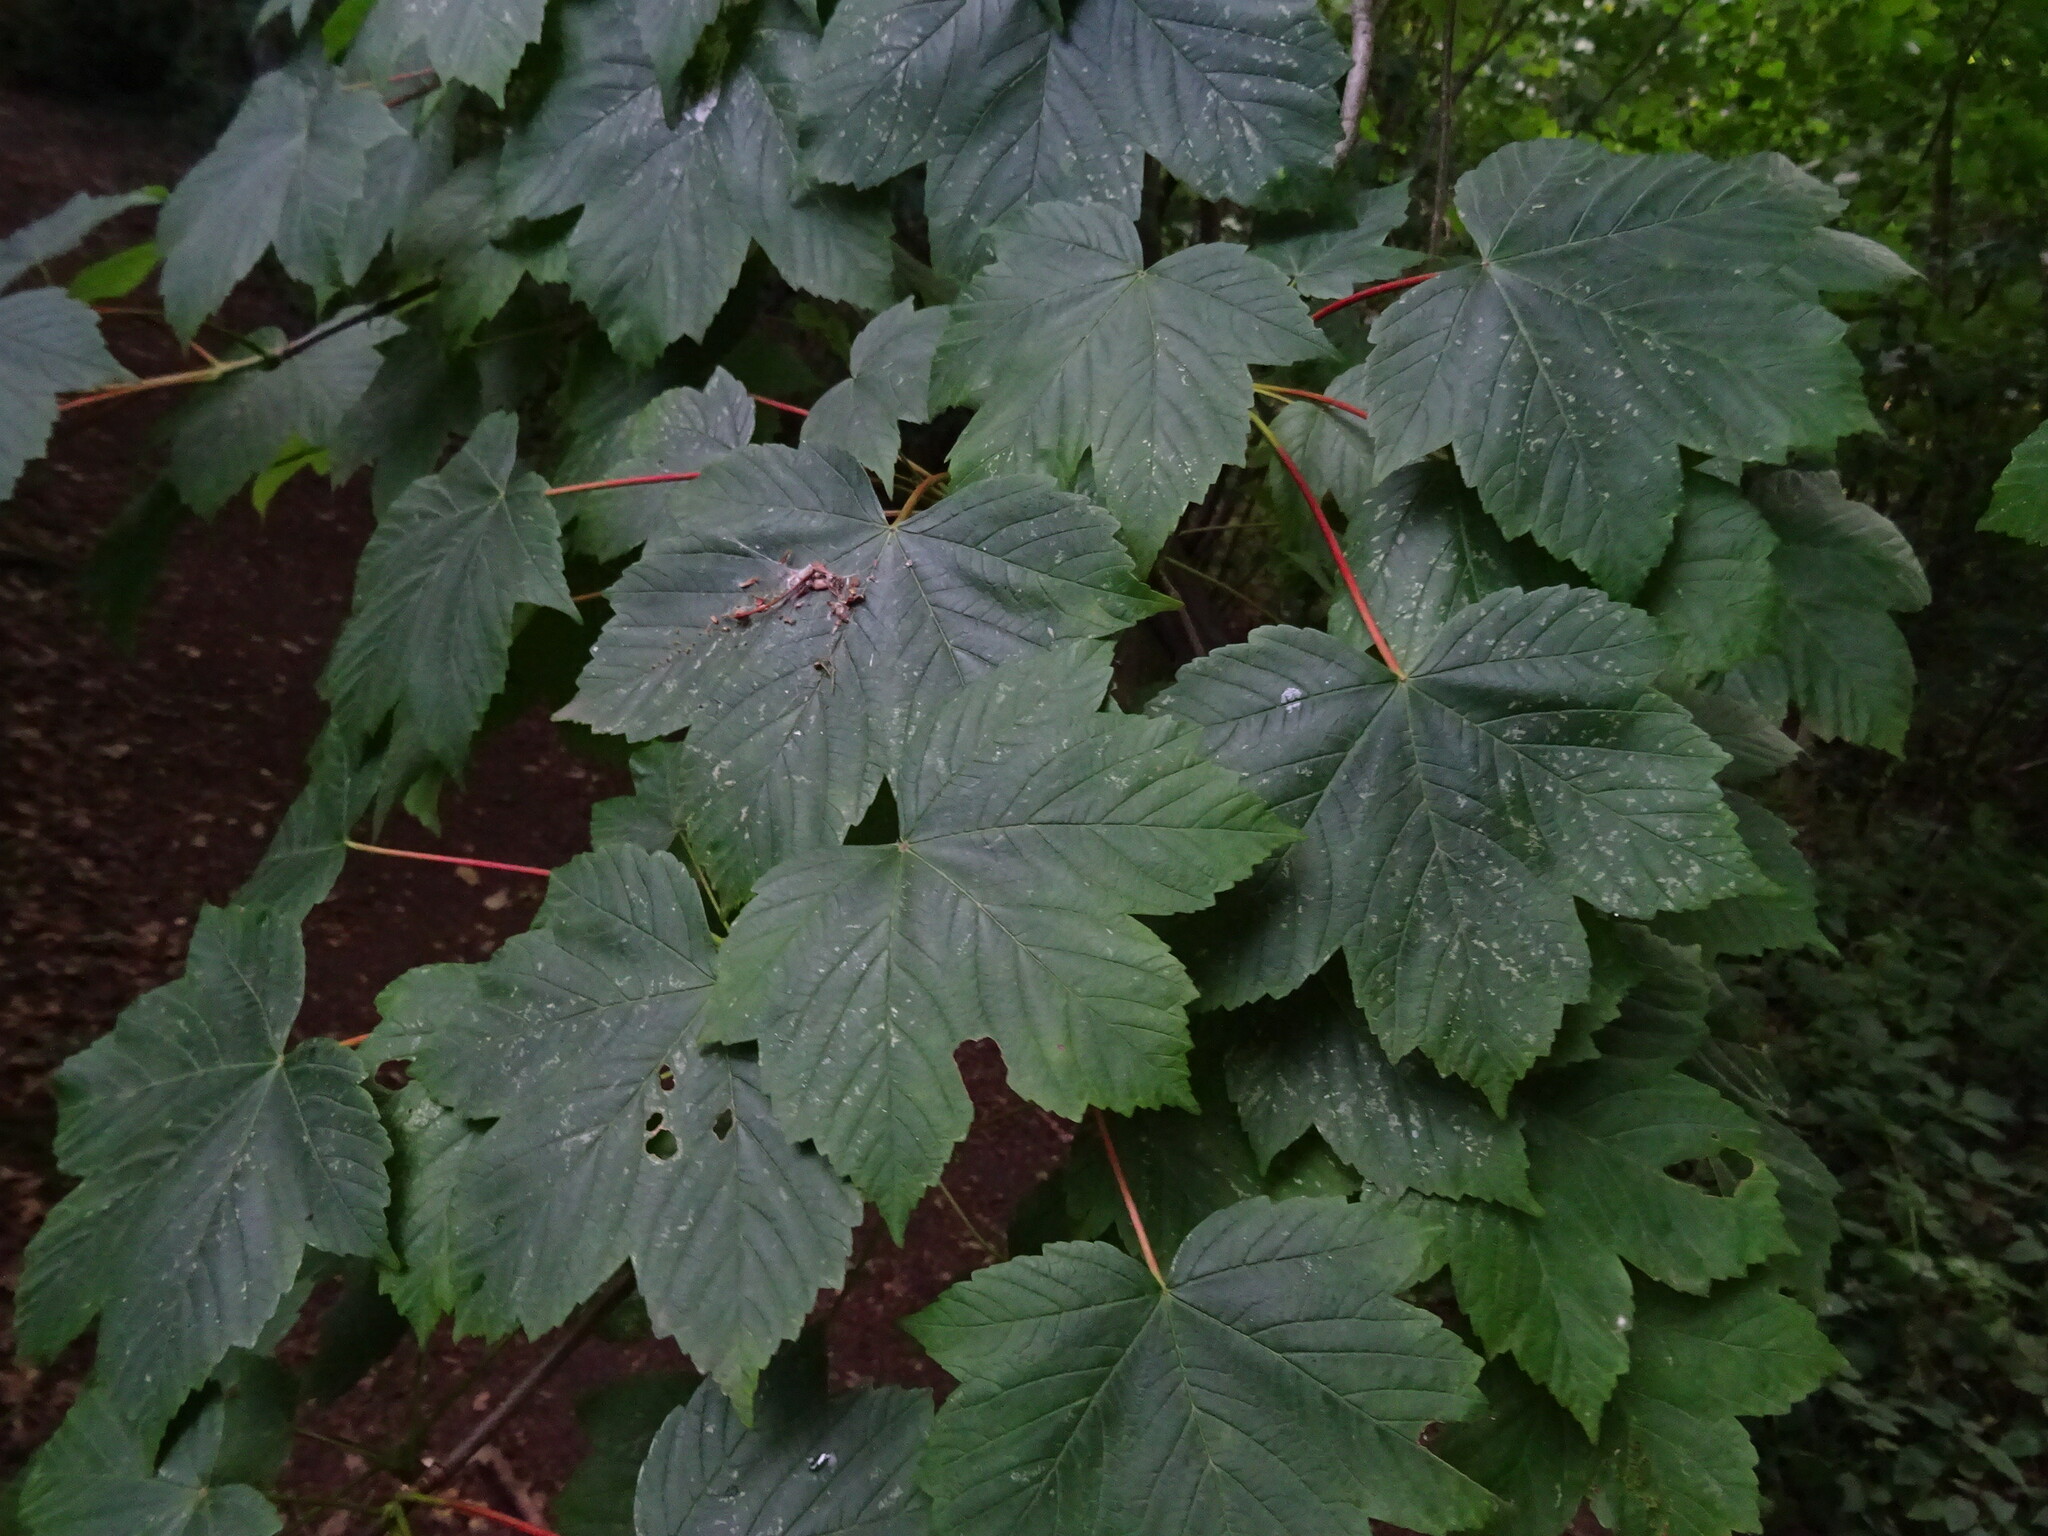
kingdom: Plantae
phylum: Tracheophyta
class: Magnoliopsida
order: Sapindales
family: Sapindaceae
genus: Acer
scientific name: Acer pseudoplatanus
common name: Sycamore
